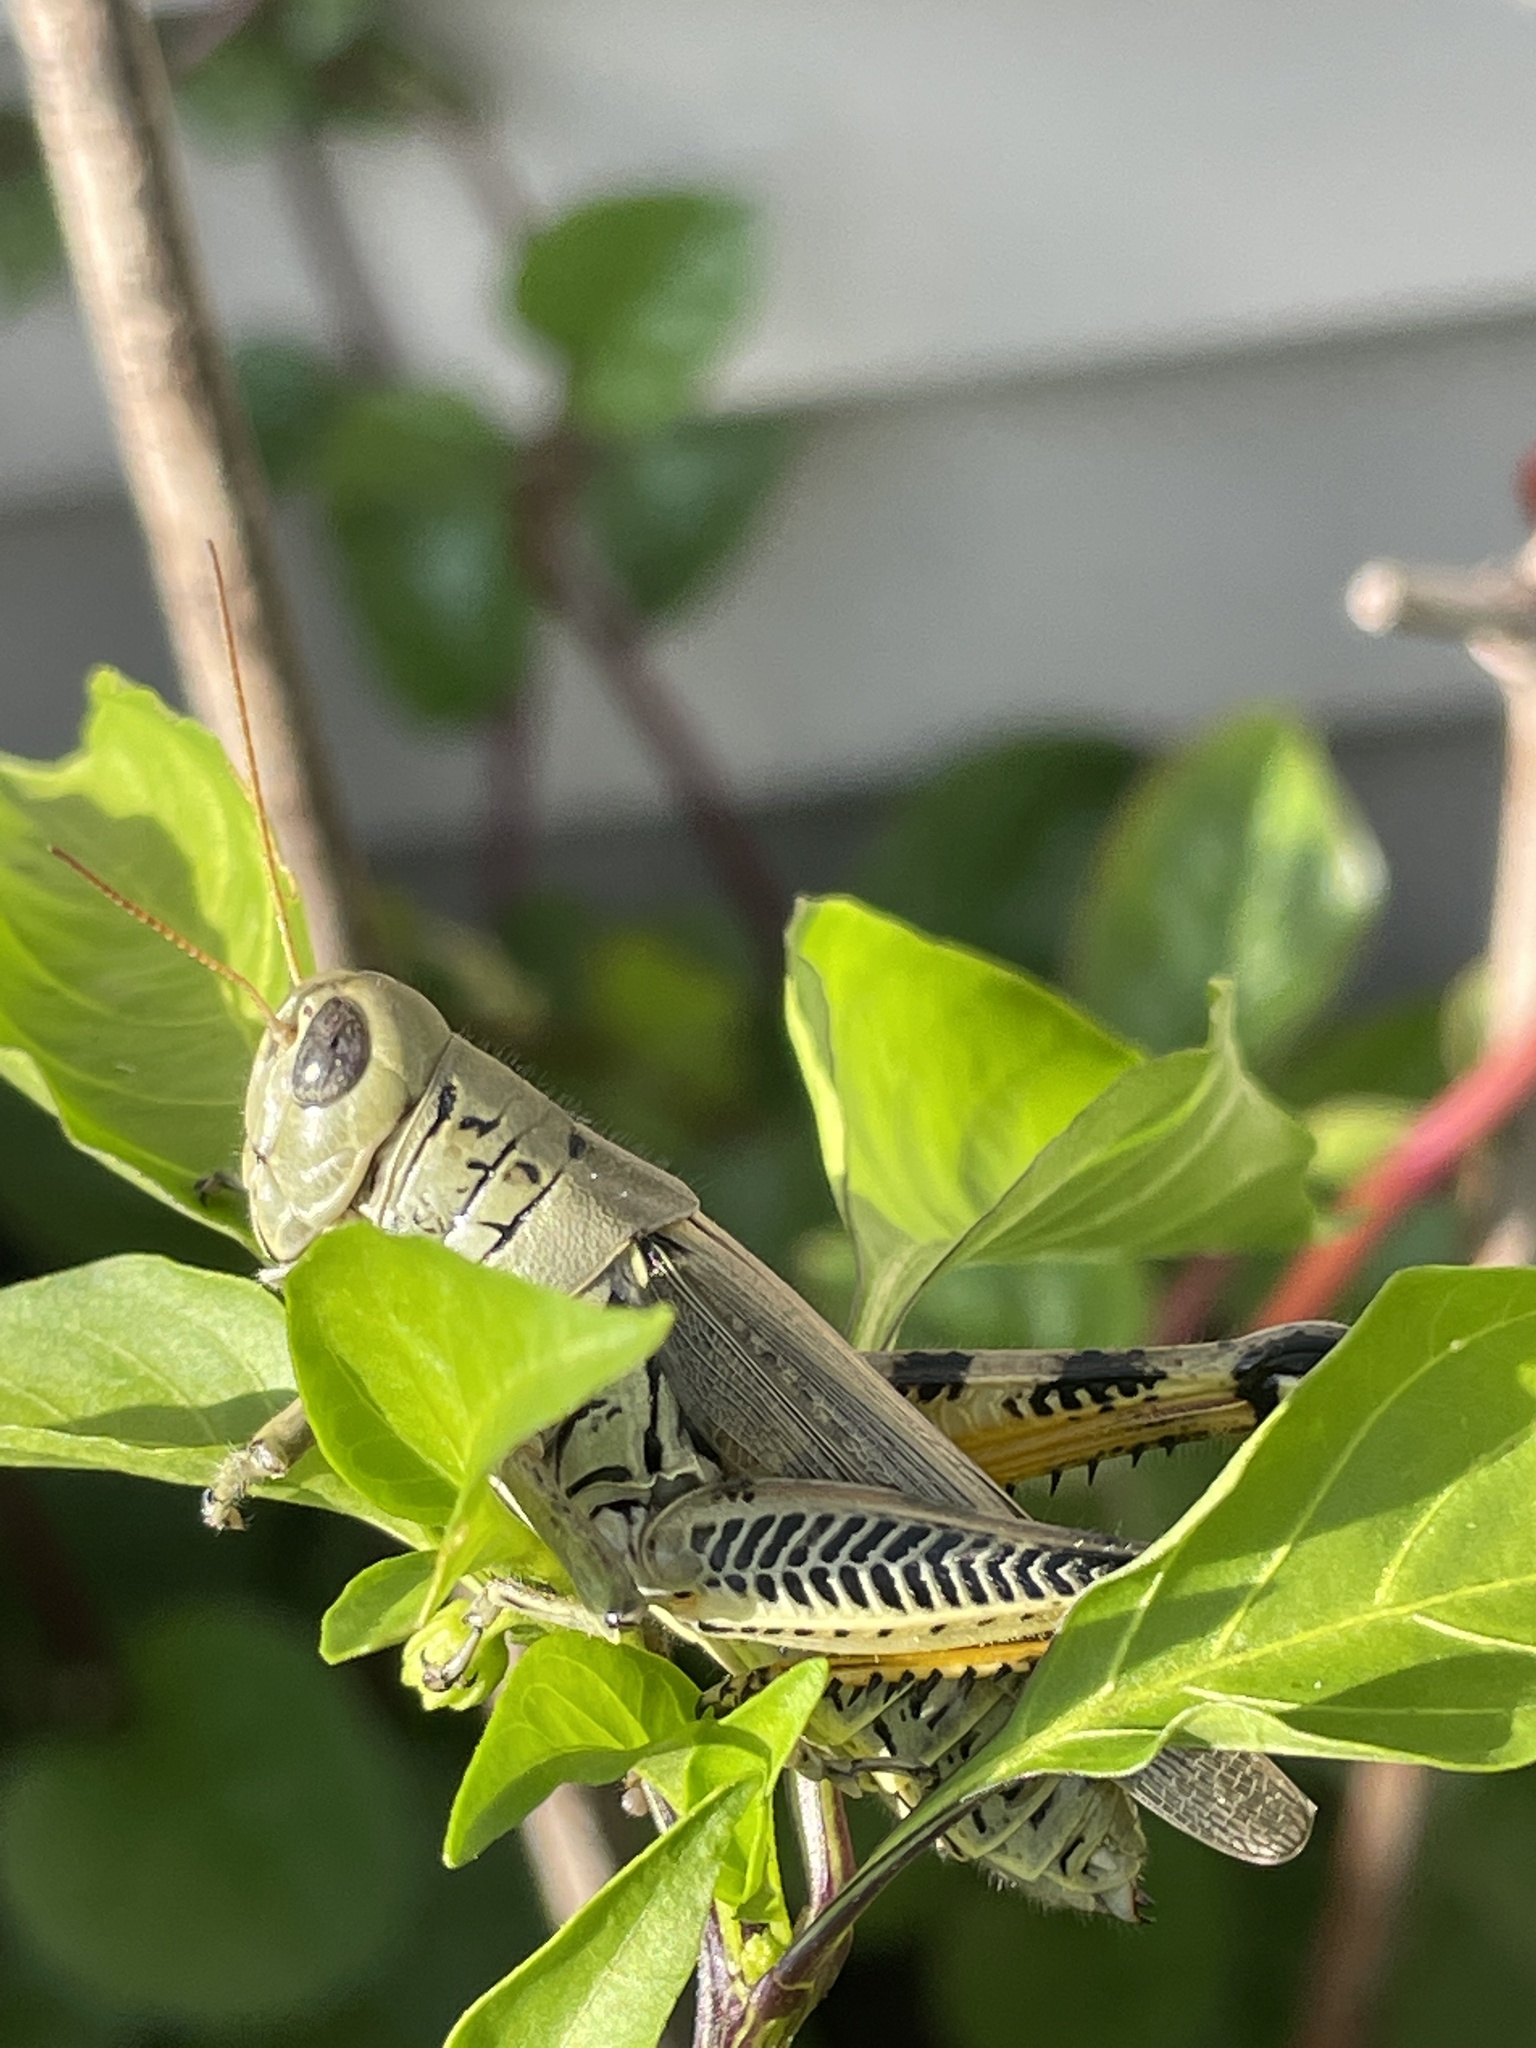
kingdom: Animalia
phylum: Arthropoda
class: Insecta
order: Orthoptera
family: Acrididae
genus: Melanoplus
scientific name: Melanoplus differentialis
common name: Differential grasshopper
